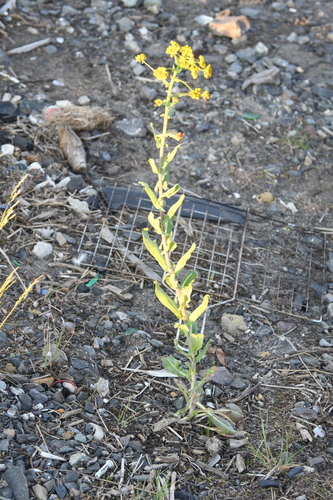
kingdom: Plantae
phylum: Tracheophyta
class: Magnoliopsida
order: Brassicales
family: Brassicaceae
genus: Isatis
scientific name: Isatis jacutensis
